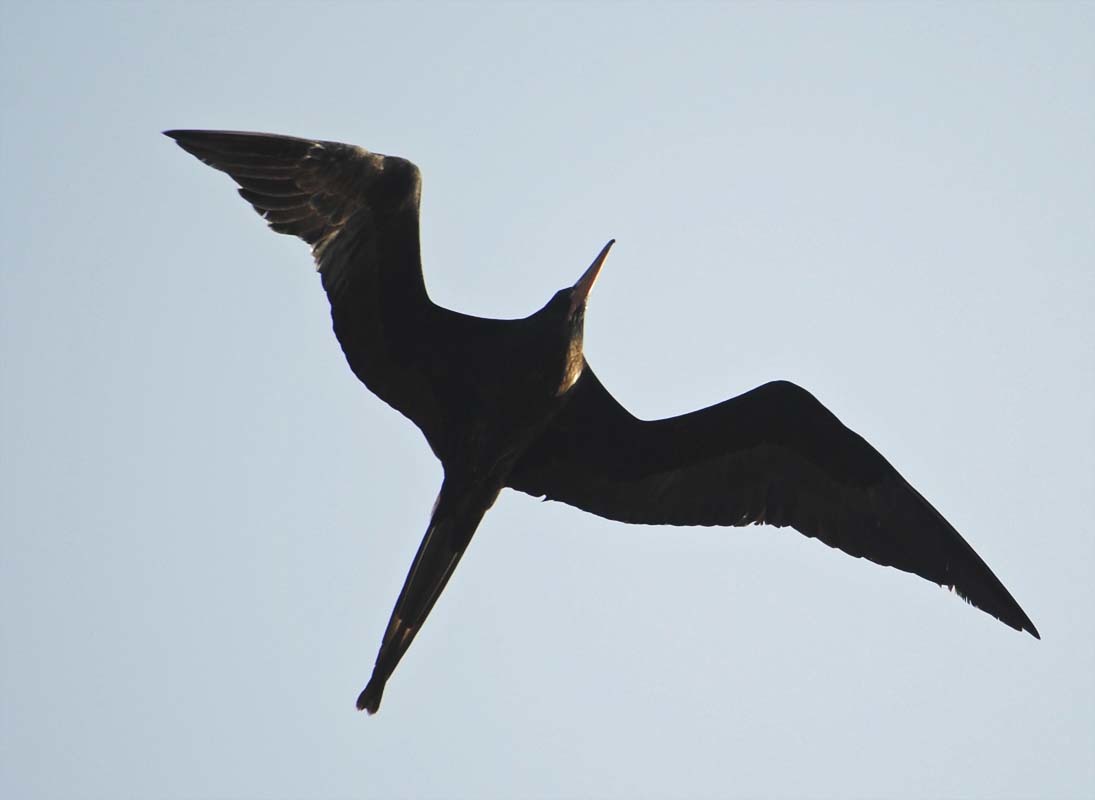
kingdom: Animalia
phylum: Chordata
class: Aves
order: Suliformes
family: Fregatidae
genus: Fregata
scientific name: Fregata magnificens
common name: Magnificent frigatebird
